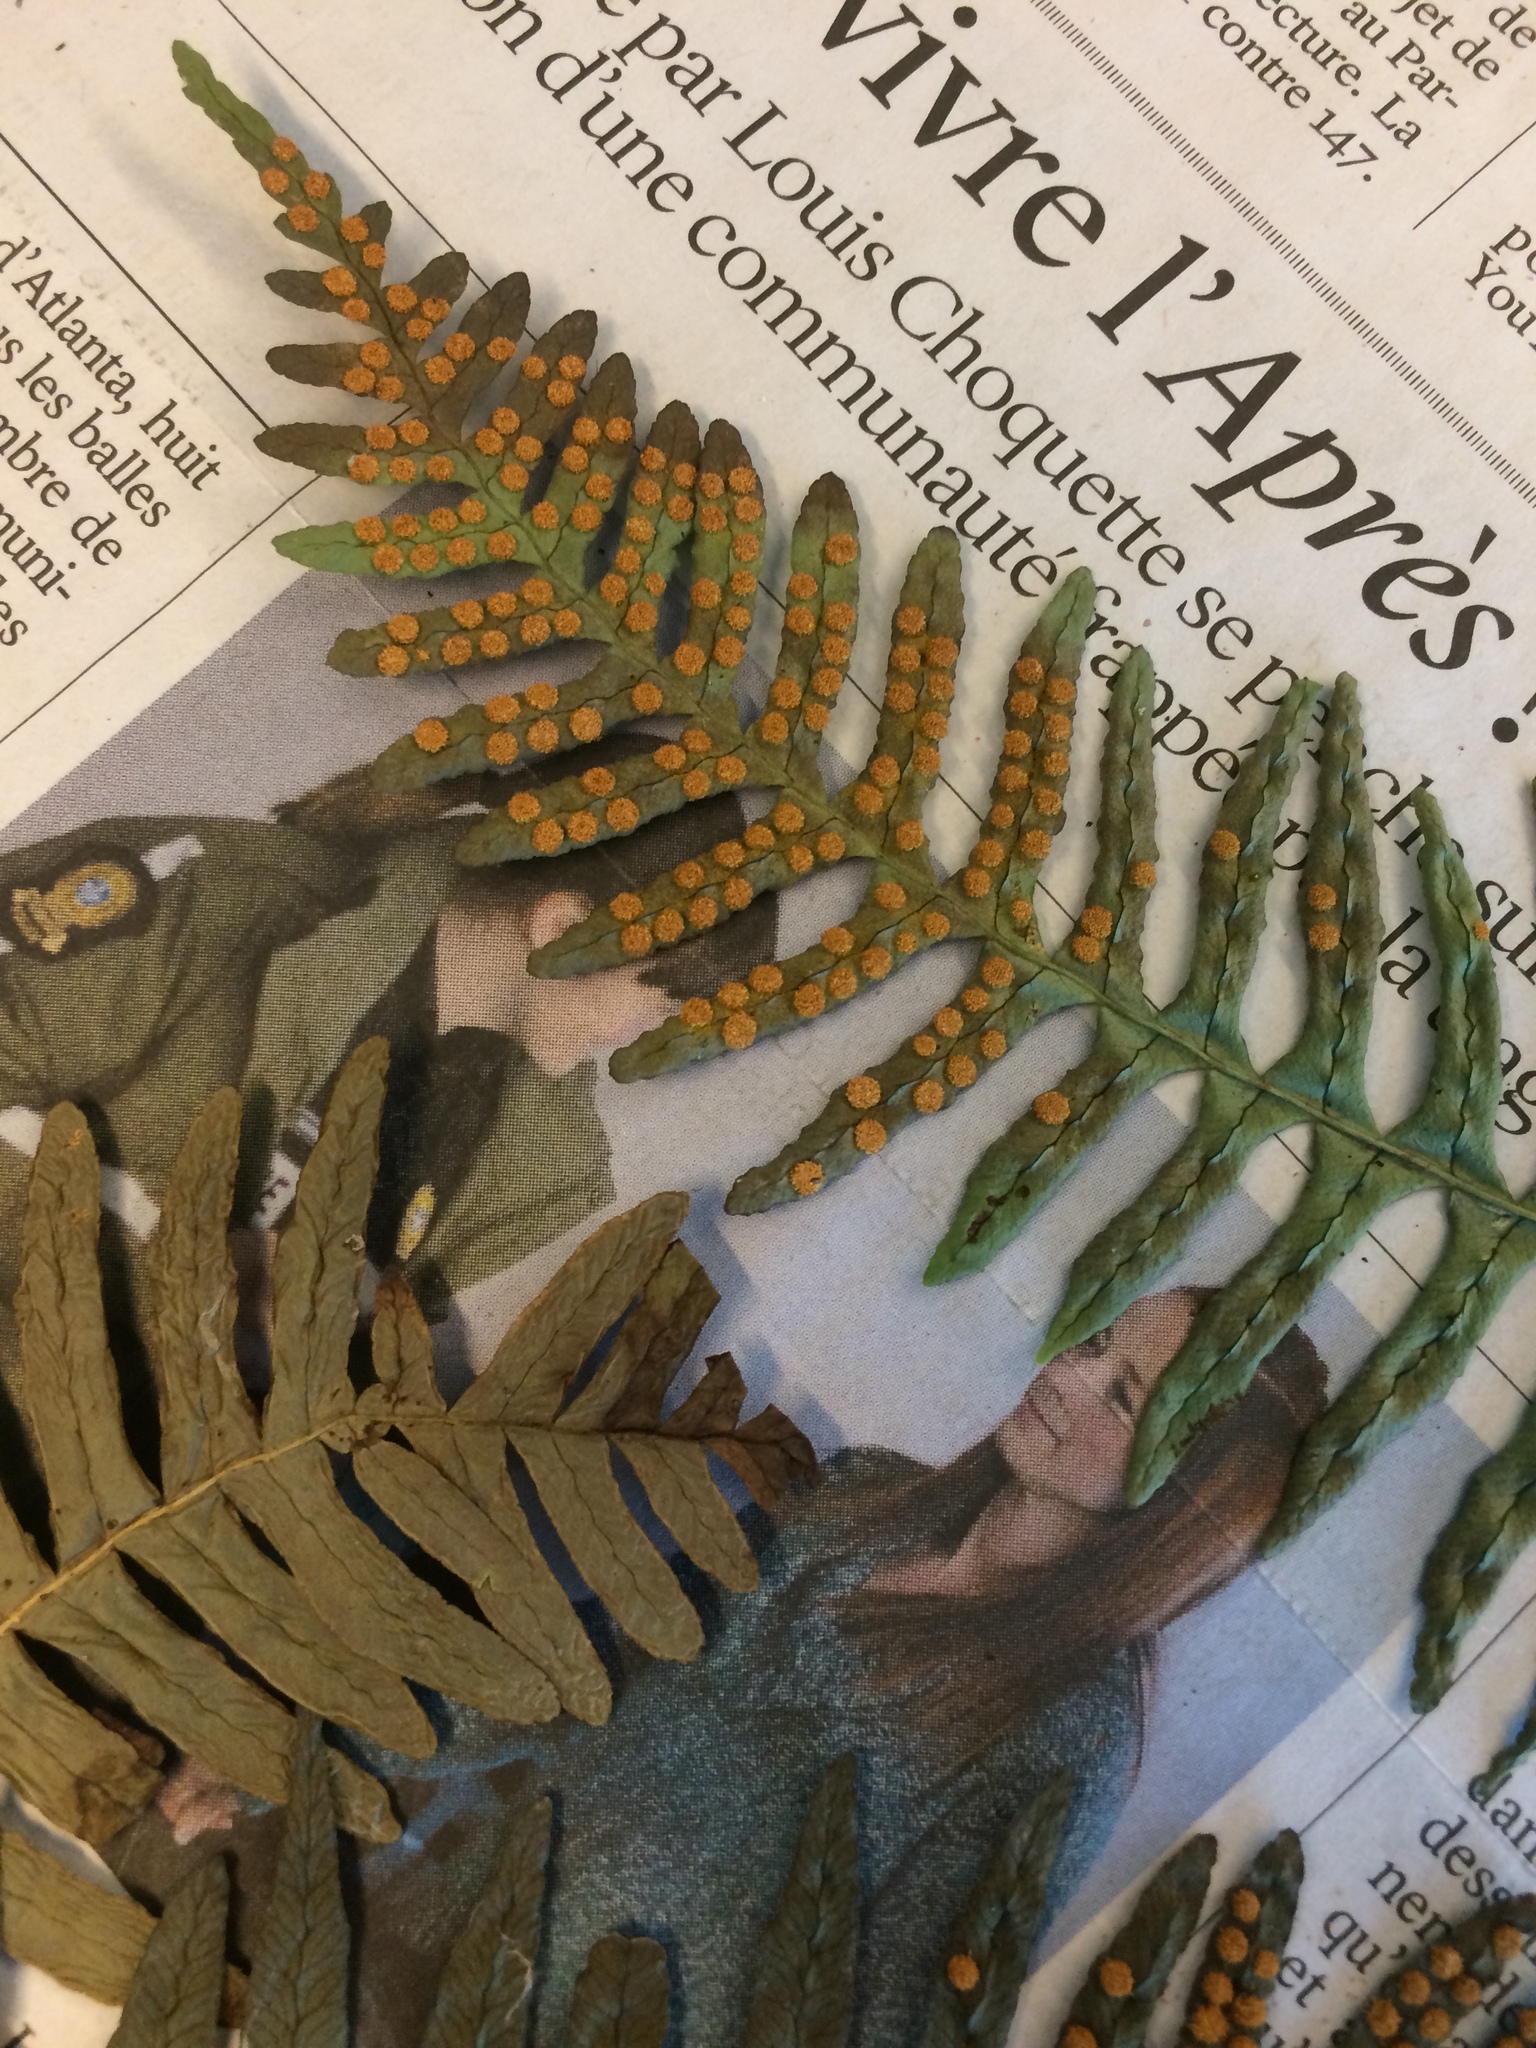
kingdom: Plantae
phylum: Tracheophyta
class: Polypodiopsida
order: Polypodiales
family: Polypodiaceae
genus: Polypodium
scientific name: Polypodium appalachianum
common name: Appalachian polypody
